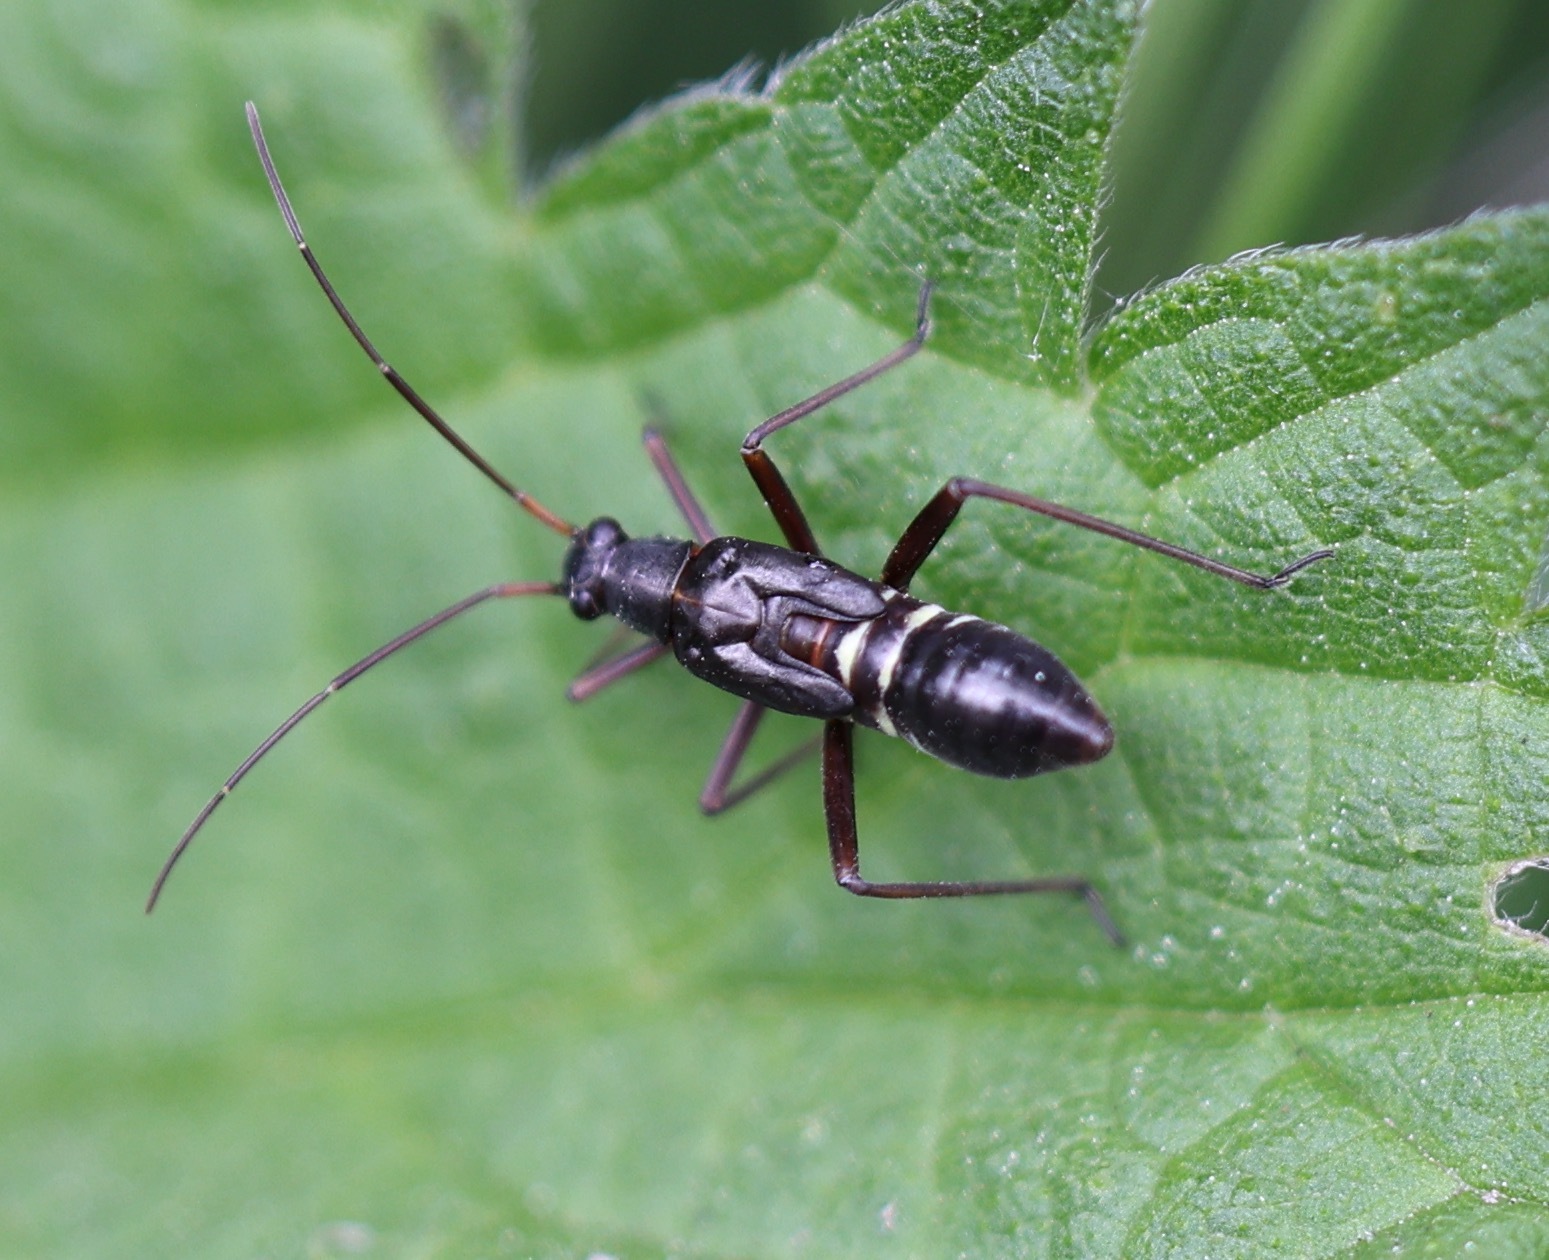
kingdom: Animalia
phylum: Arthropoda
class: Insecta
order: Hemiptera
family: Miridae
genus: Miris
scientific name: Miris striatus
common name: Fine streaked bugkin
